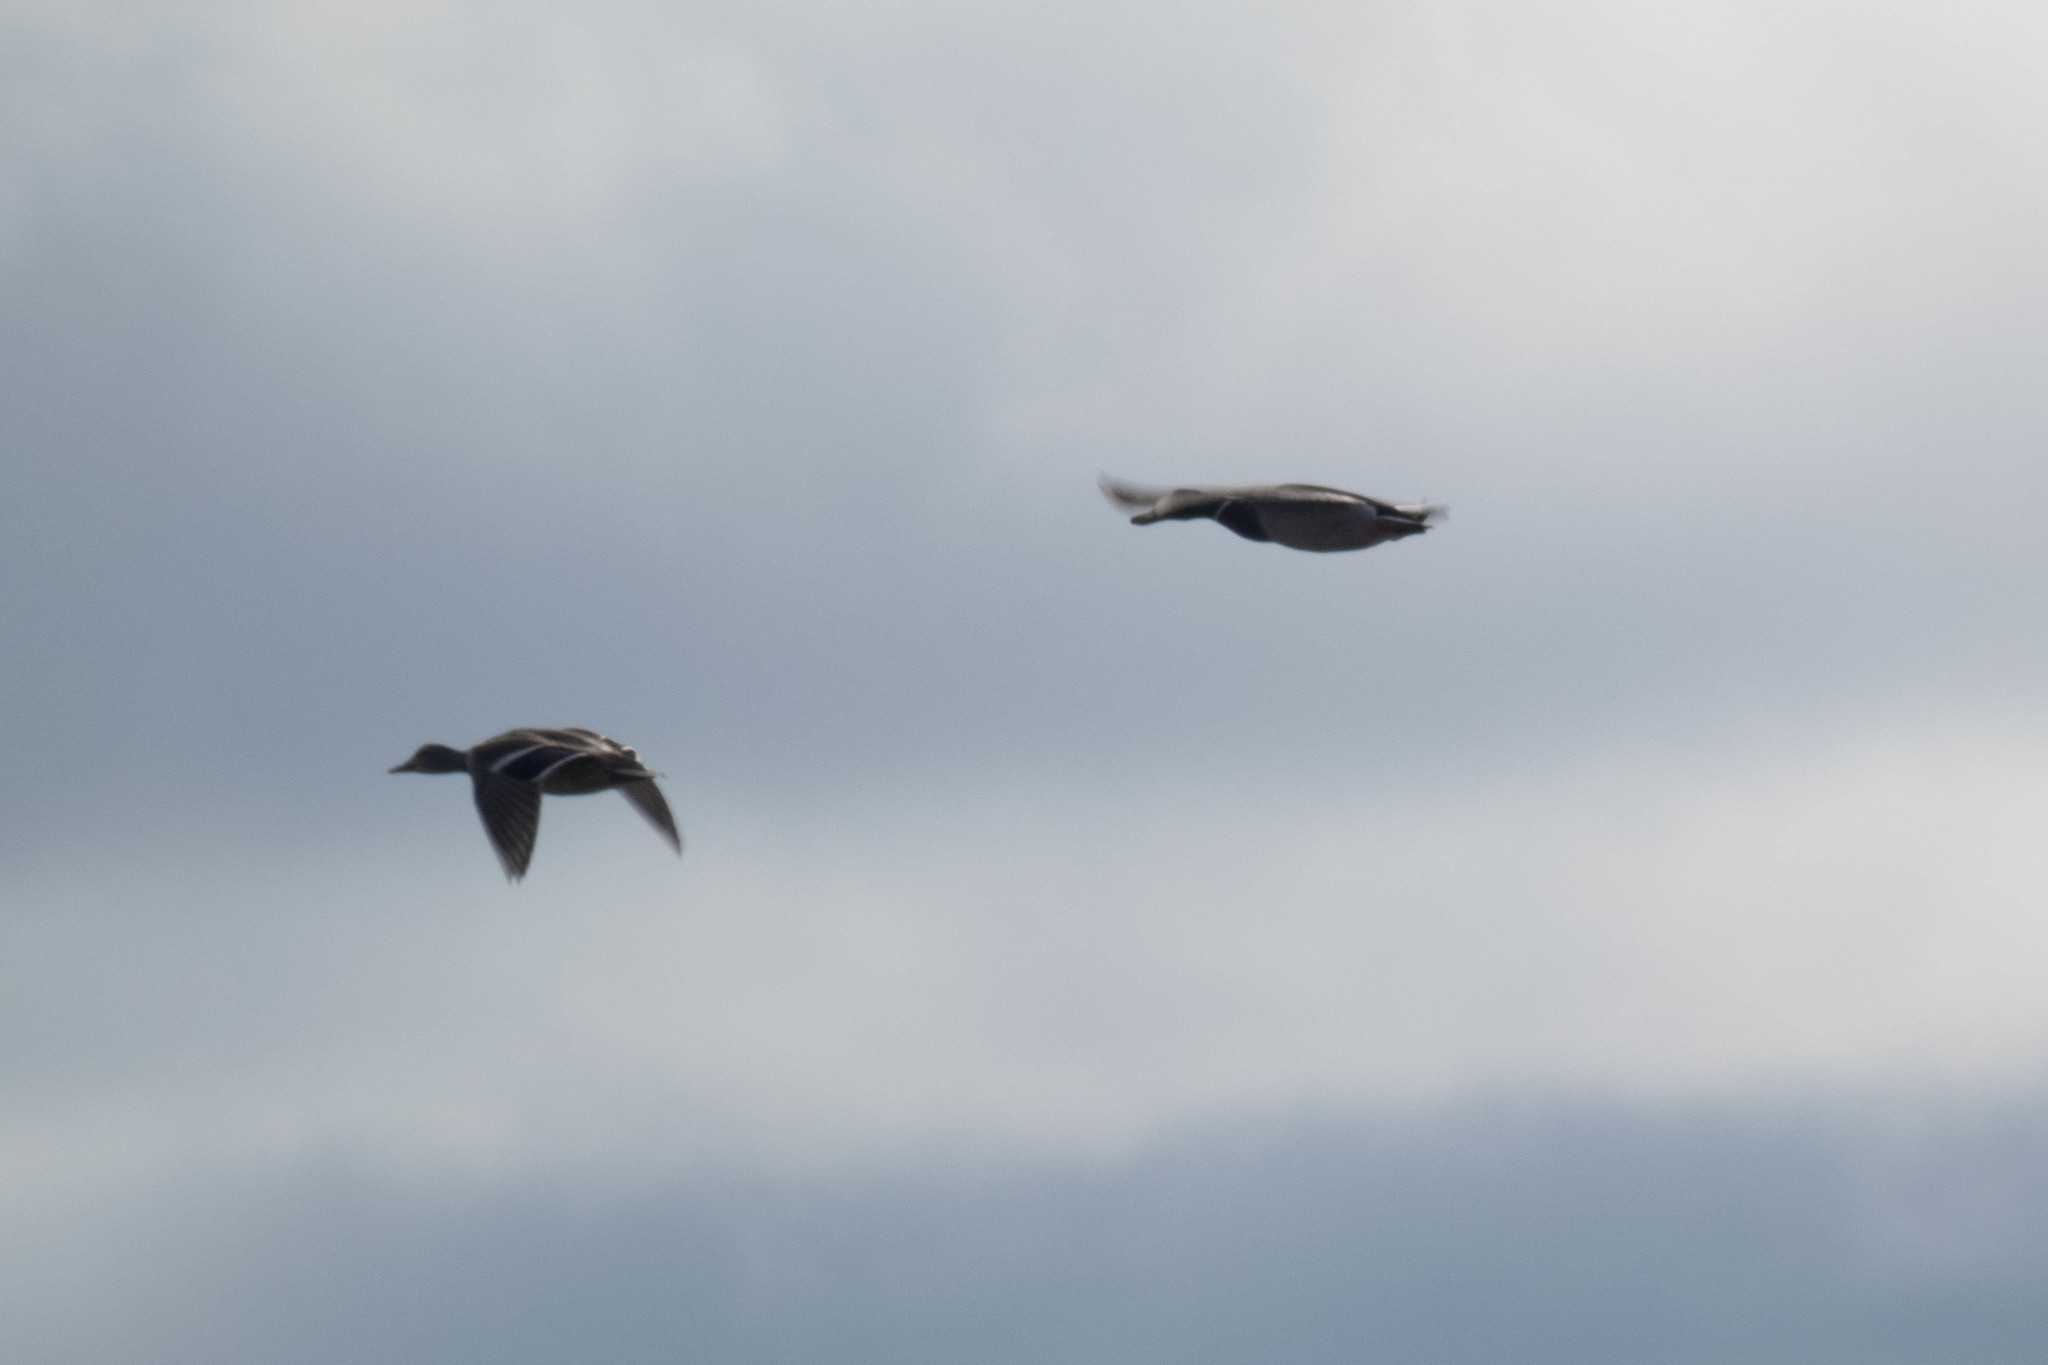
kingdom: Animalia
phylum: Chordata
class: Aves
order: Anseriformes
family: Anatidae
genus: Anas
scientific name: Anas platyrhynchos
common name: Mallard
